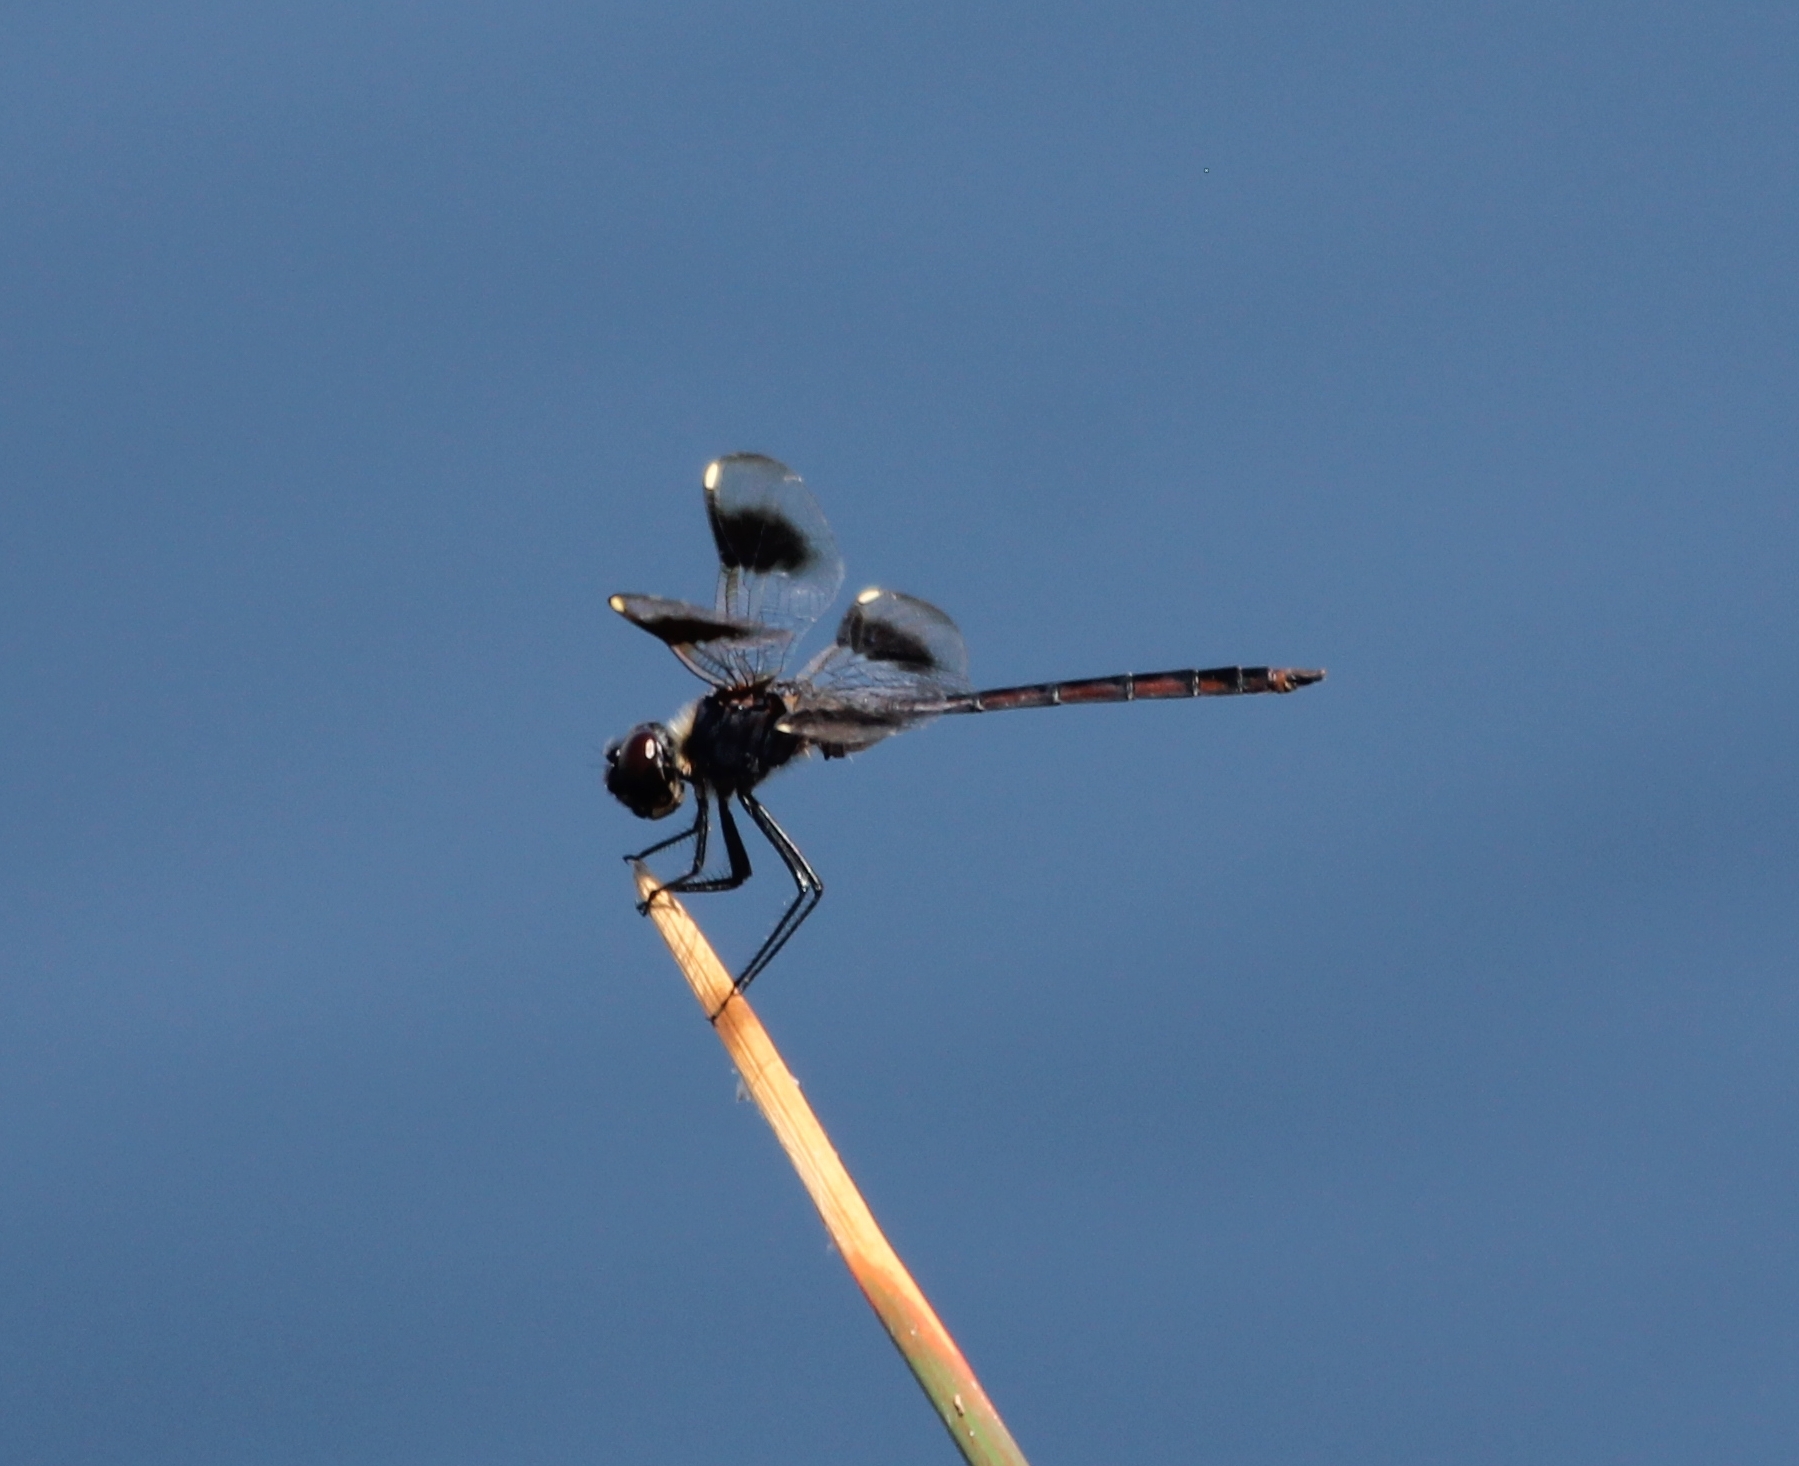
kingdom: Animalia
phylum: Arthropoda
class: Insecta
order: Odonata
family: Libellulidae
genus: Brachymesia
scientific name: Brachymesia gravida
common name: Four-spotted pennant
